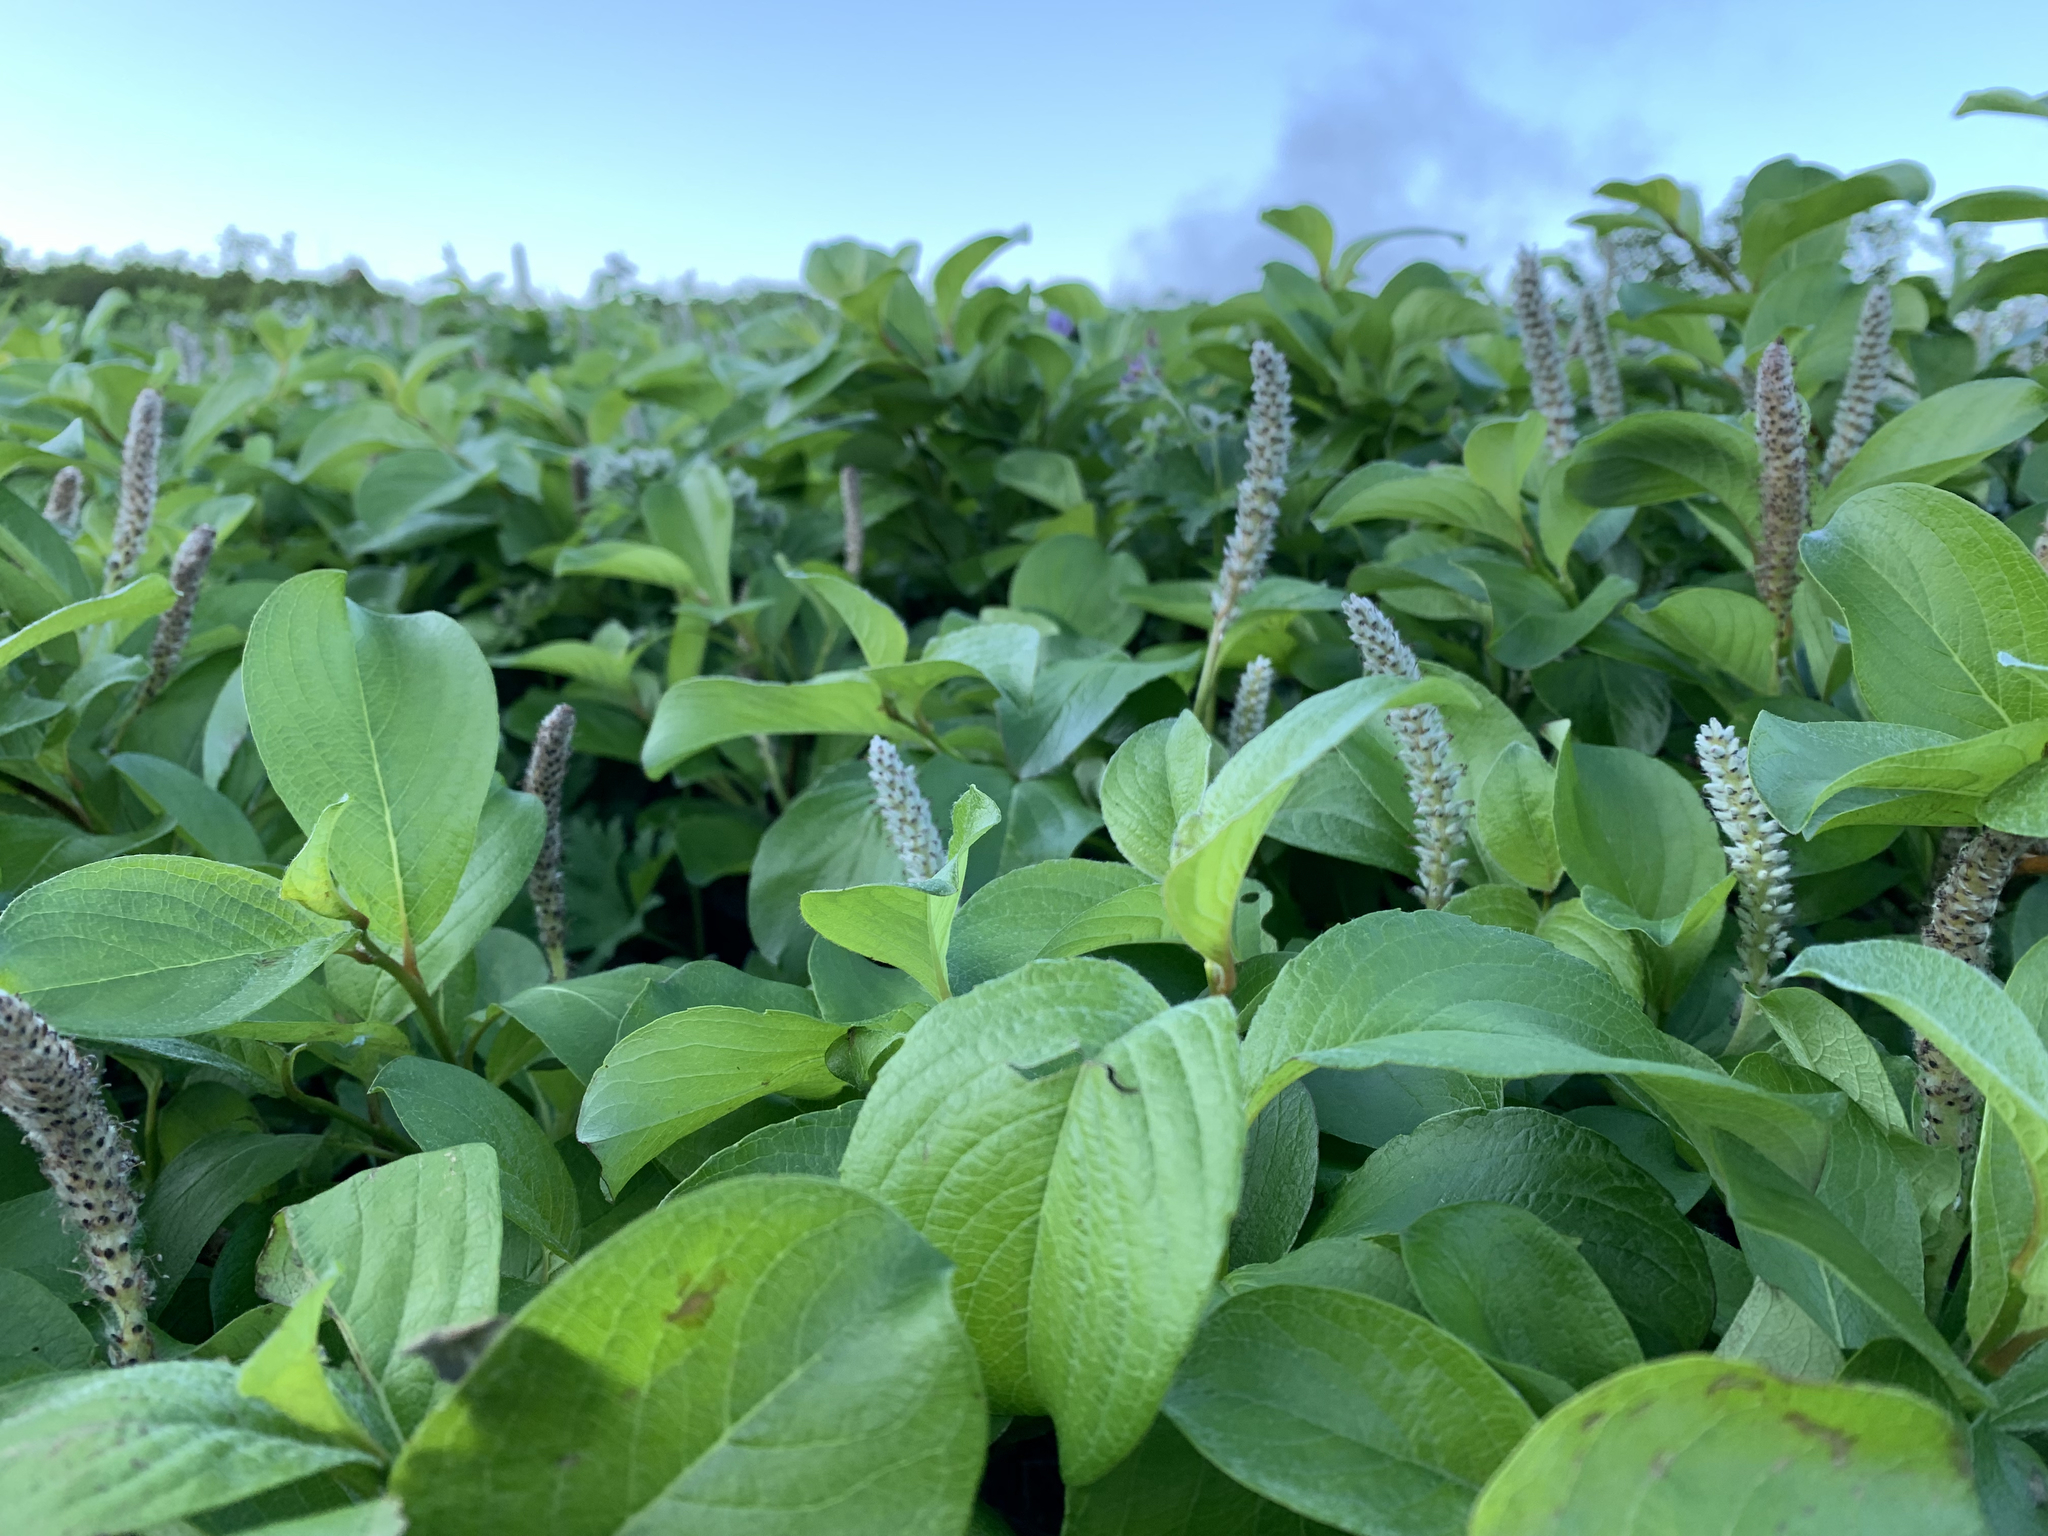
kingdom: Plantae
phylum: Tracheophyta
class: Magnoliopsida
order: Malpighiales
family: Salicaceae
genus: Salix
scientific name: Salix arctica
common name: Arctic willow
